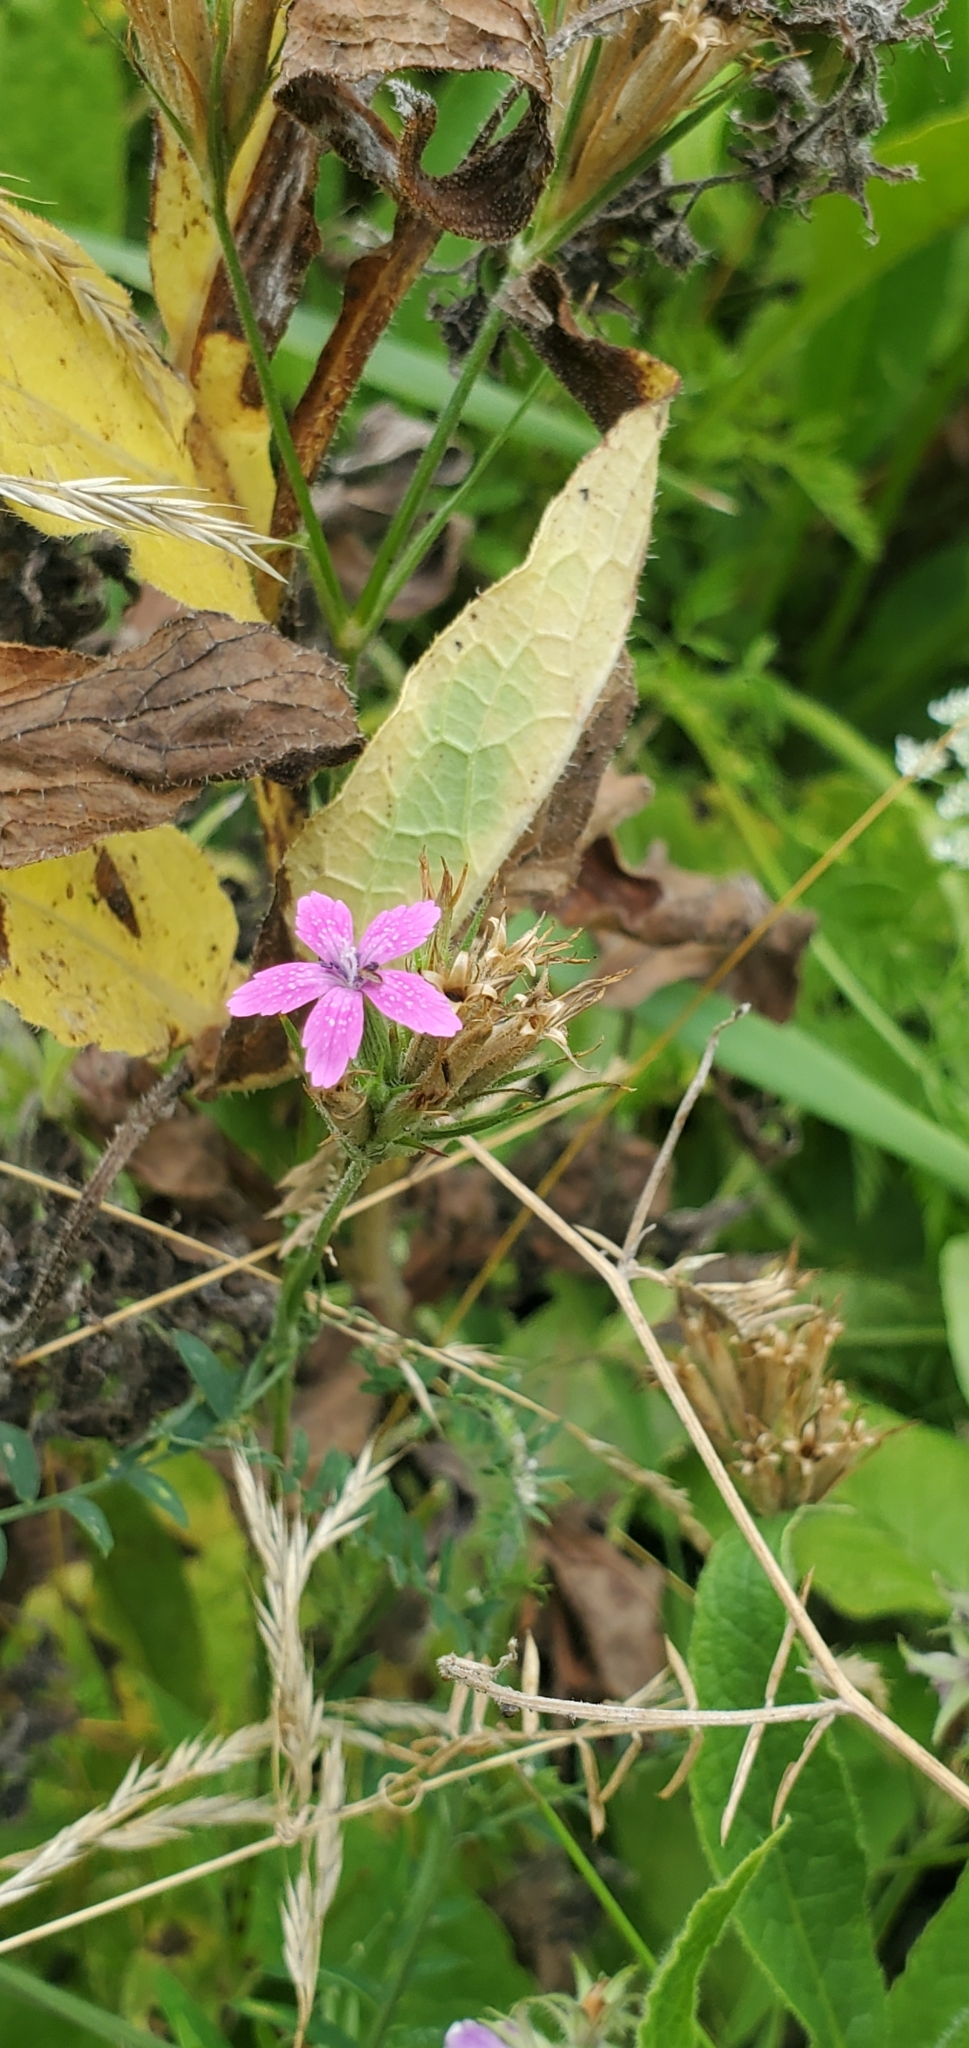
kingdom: Plantae
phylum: Tracheophyta
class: Magnoliopsida
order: Caryophyllales
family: Caryophyllaceae
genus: Dianthus
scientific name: Dianthus armeria
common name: Deptford pink
